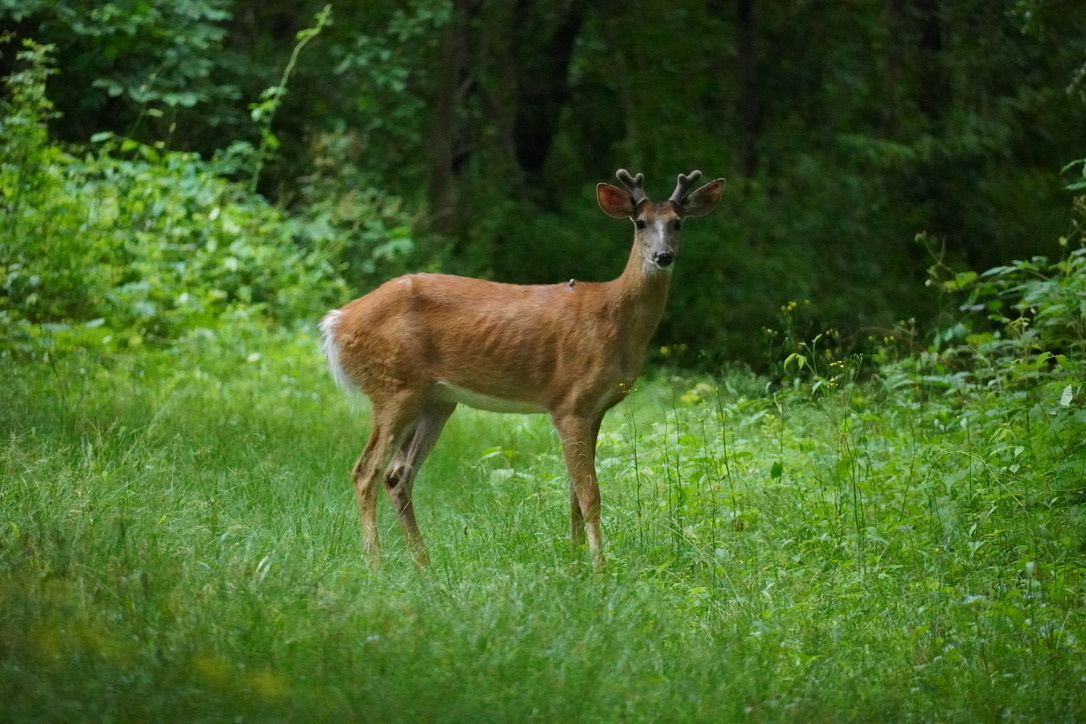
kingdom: Animalia
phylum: Chordata
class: Mammalia
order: Artiodactyla
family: Cervidae
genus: Odocoileus
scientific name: Odocoileus virginianus
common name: White-tailed deer
